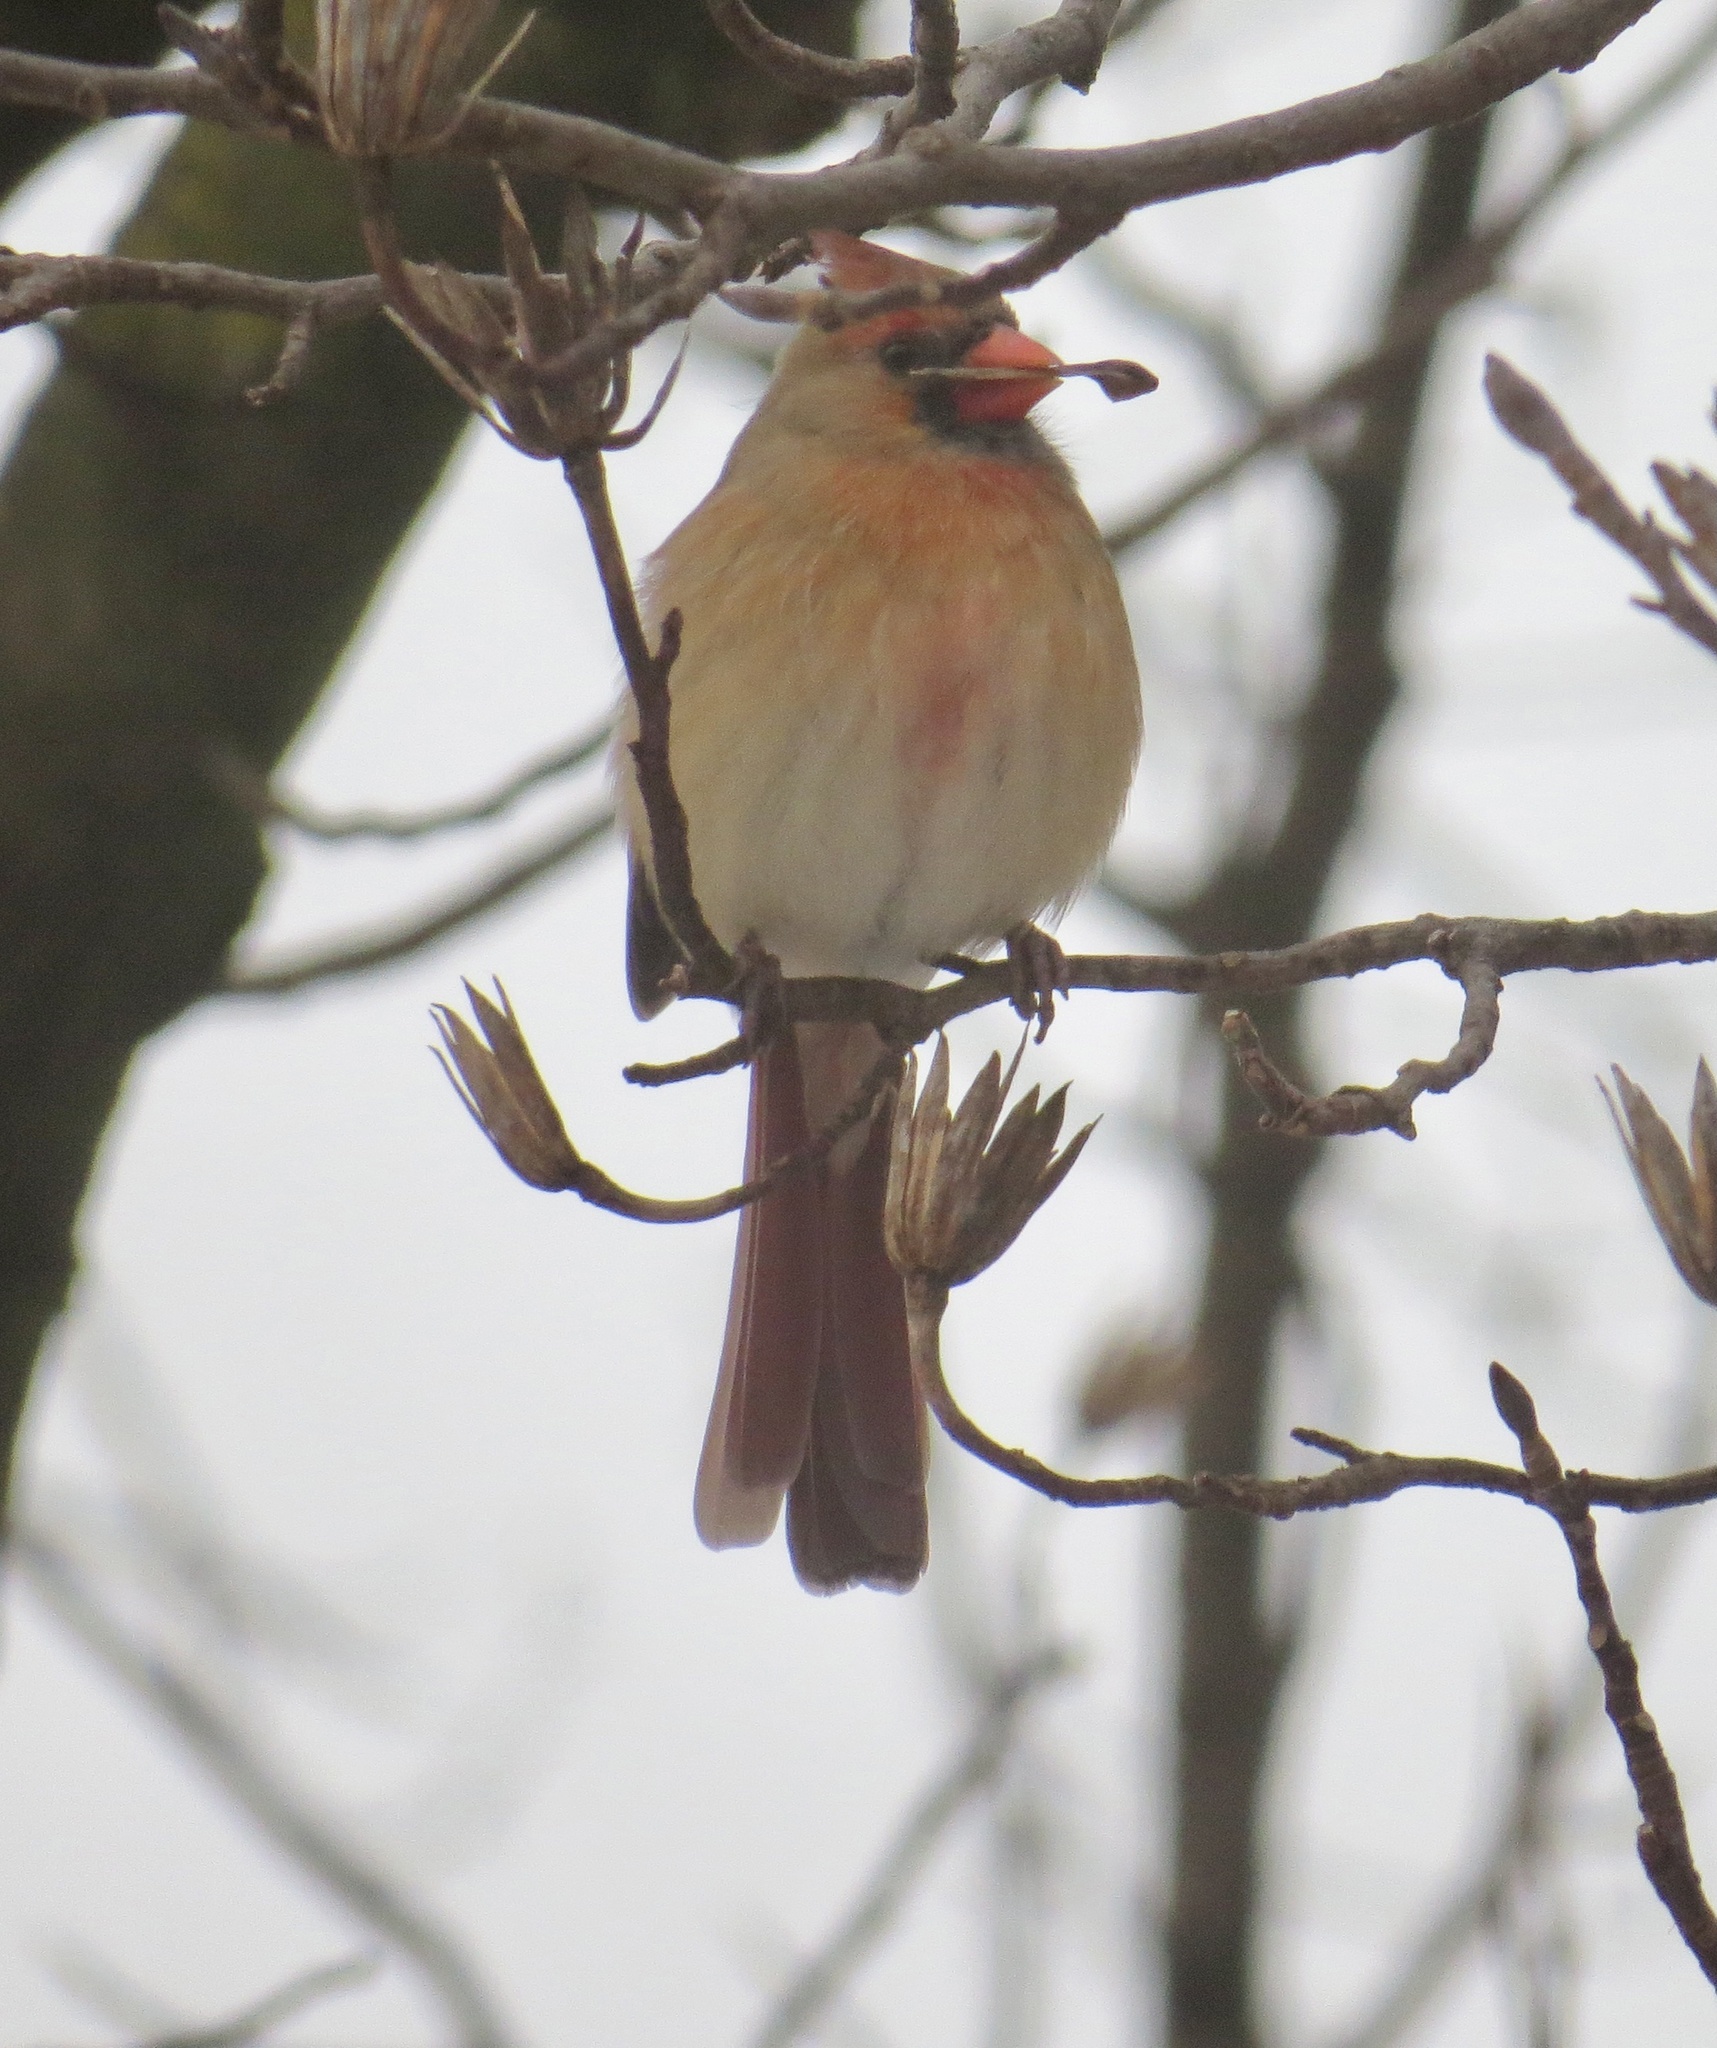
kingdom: Animalia
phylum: Chordata
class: Aves
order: Passeriformes
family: Cardinalidae
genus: Cardinalis
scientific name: Cardinalis cardinalis
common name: Northern cardinal
